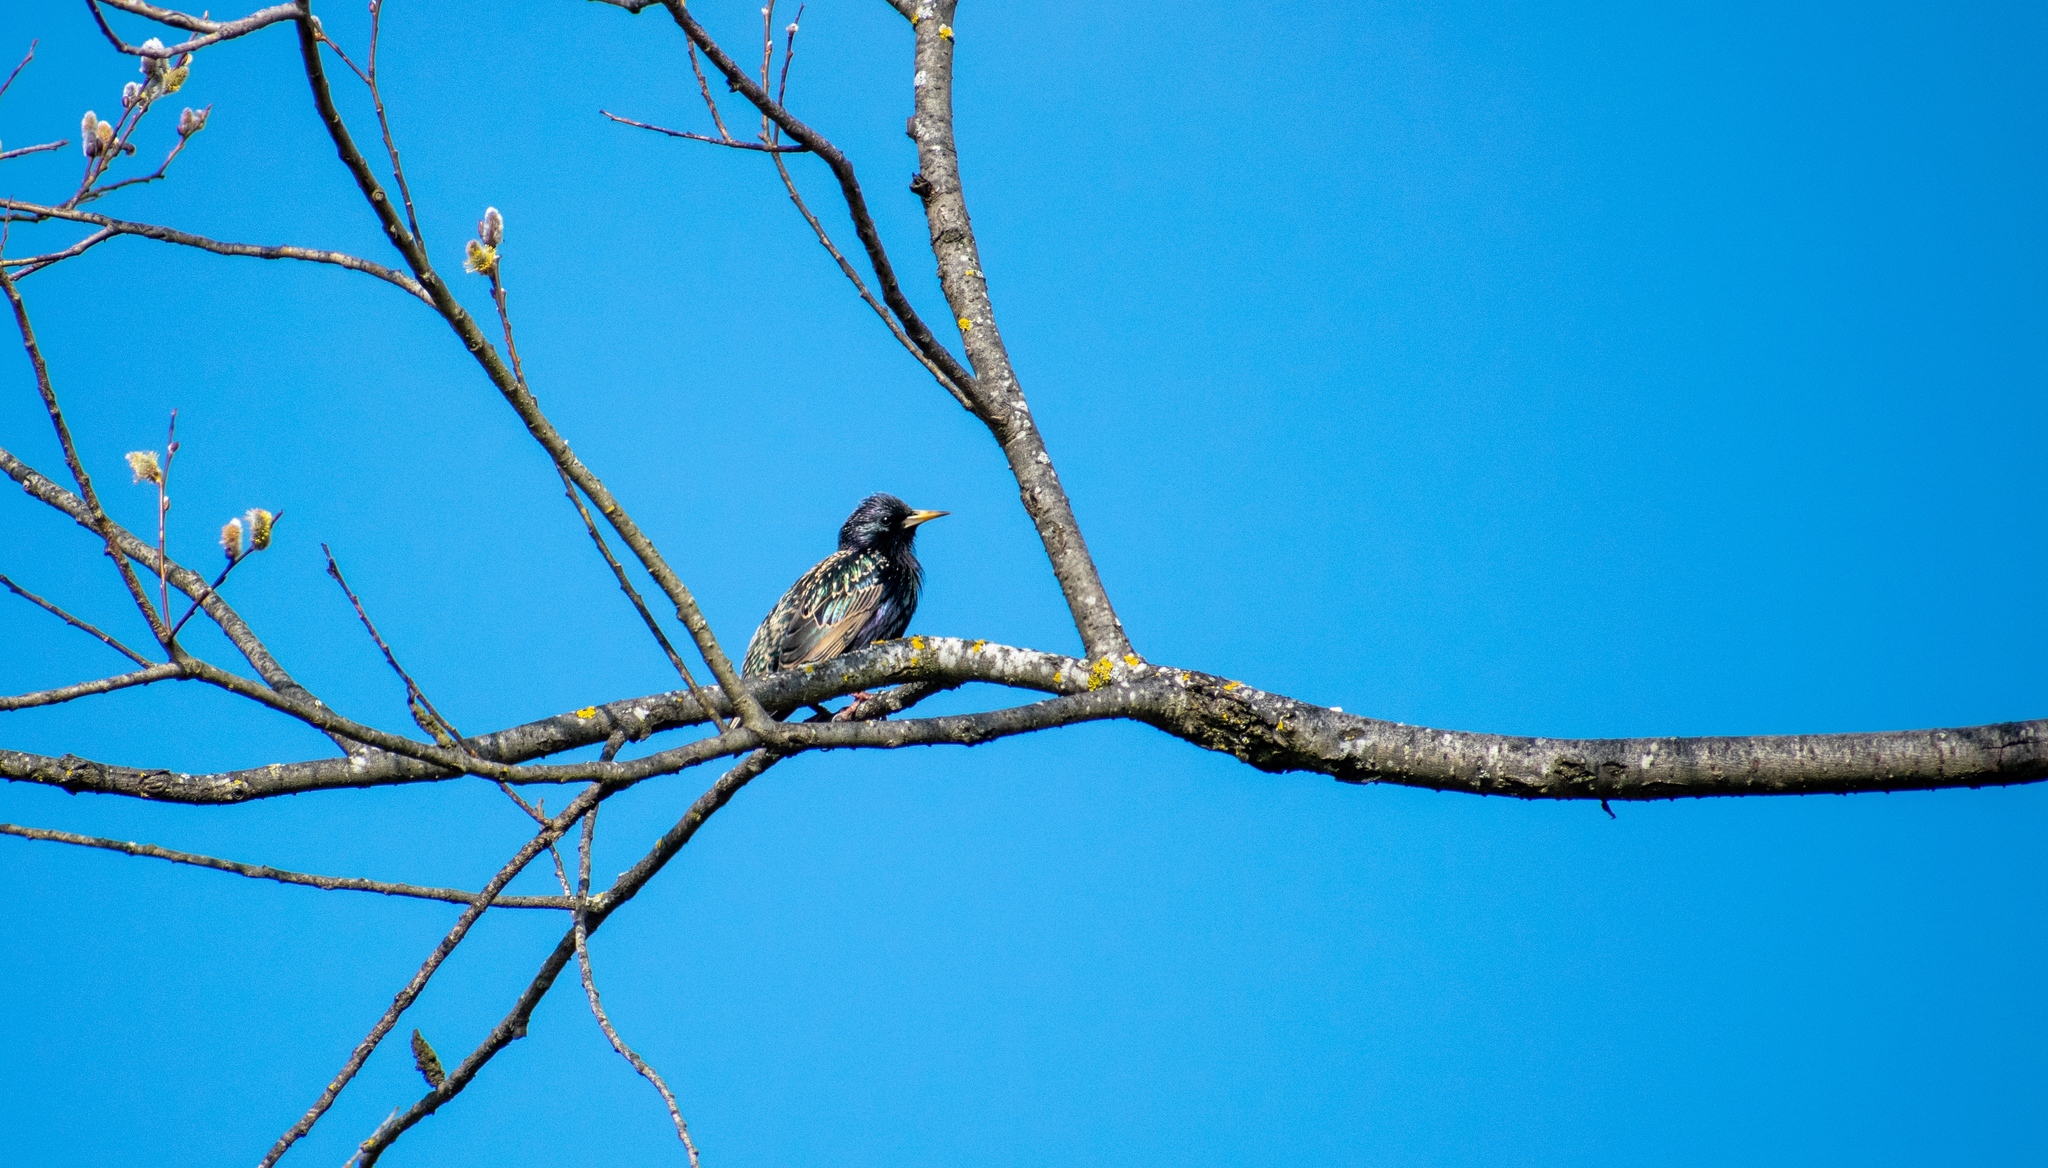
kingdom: Animalia
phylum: Chordata
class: Aves
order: Passeriformes
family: Sturnidae
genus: Sturnus
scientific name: Sturnus vulgaris
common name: Common starling
